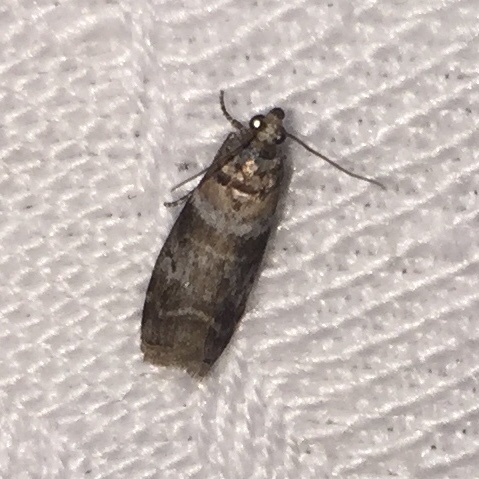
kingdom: Animalia
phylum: Arthropoda
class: Insecta
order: Lepidoptera
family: Pyralidae
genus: Sciota
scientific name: Sciota uvinella
